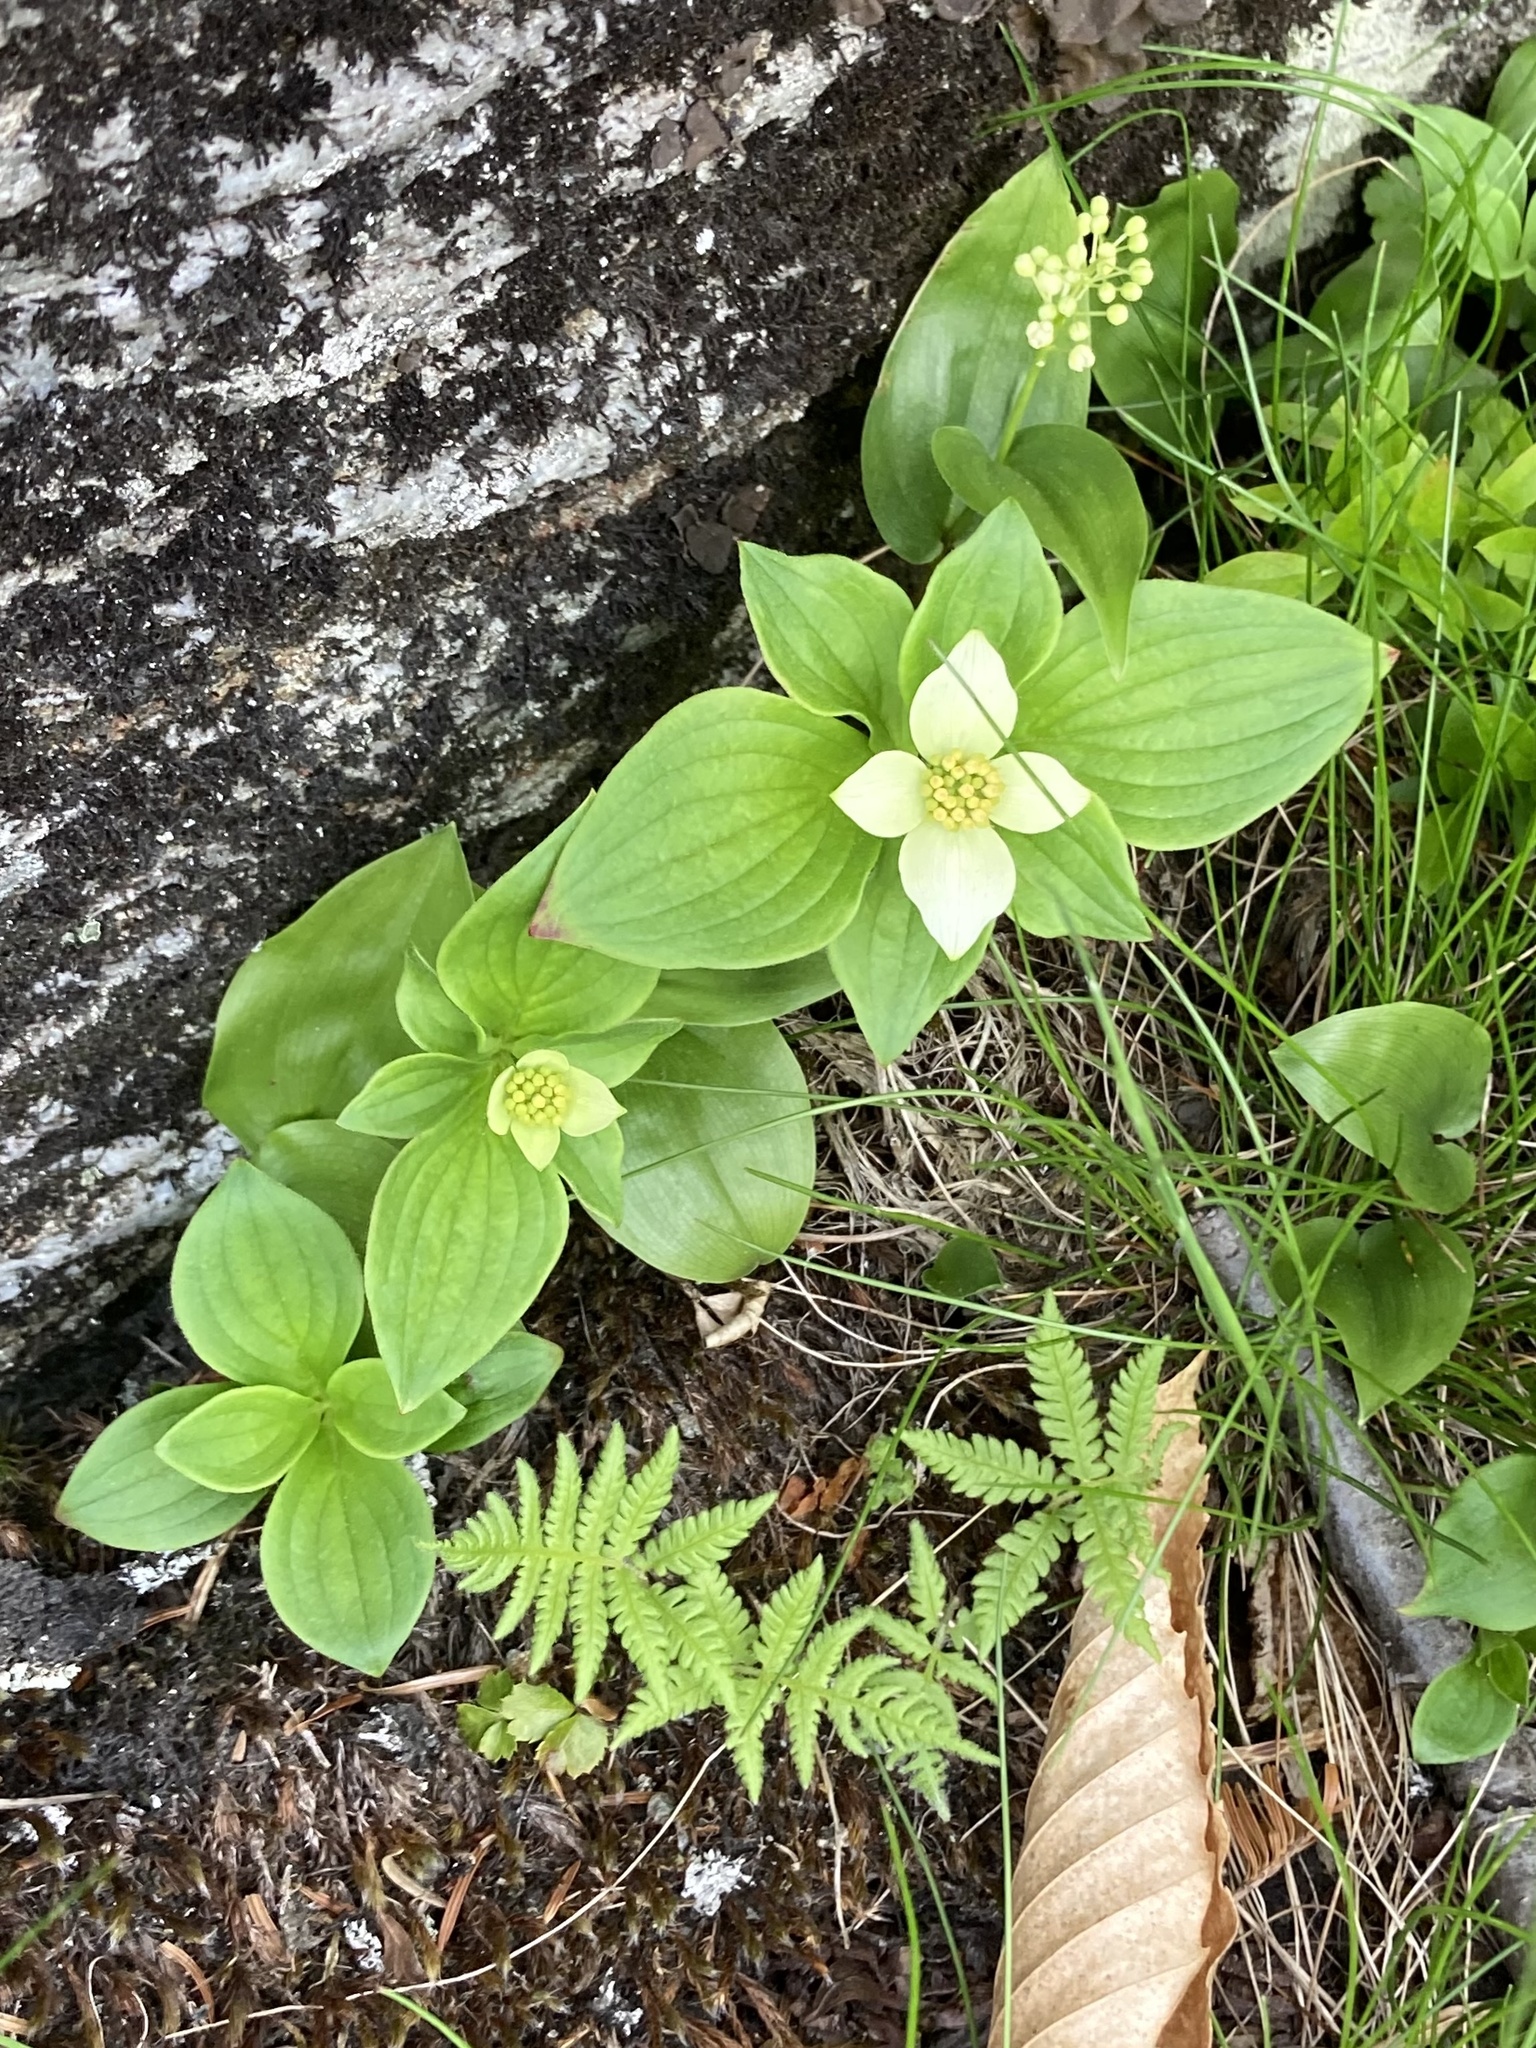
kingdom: Plantae
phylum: Tracheophyta
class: Polypodiopsida
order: Polypodiales
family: Thelypteridaceae
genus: Phegopteris
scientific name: Phegopteris connectilis
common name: Beech fern
